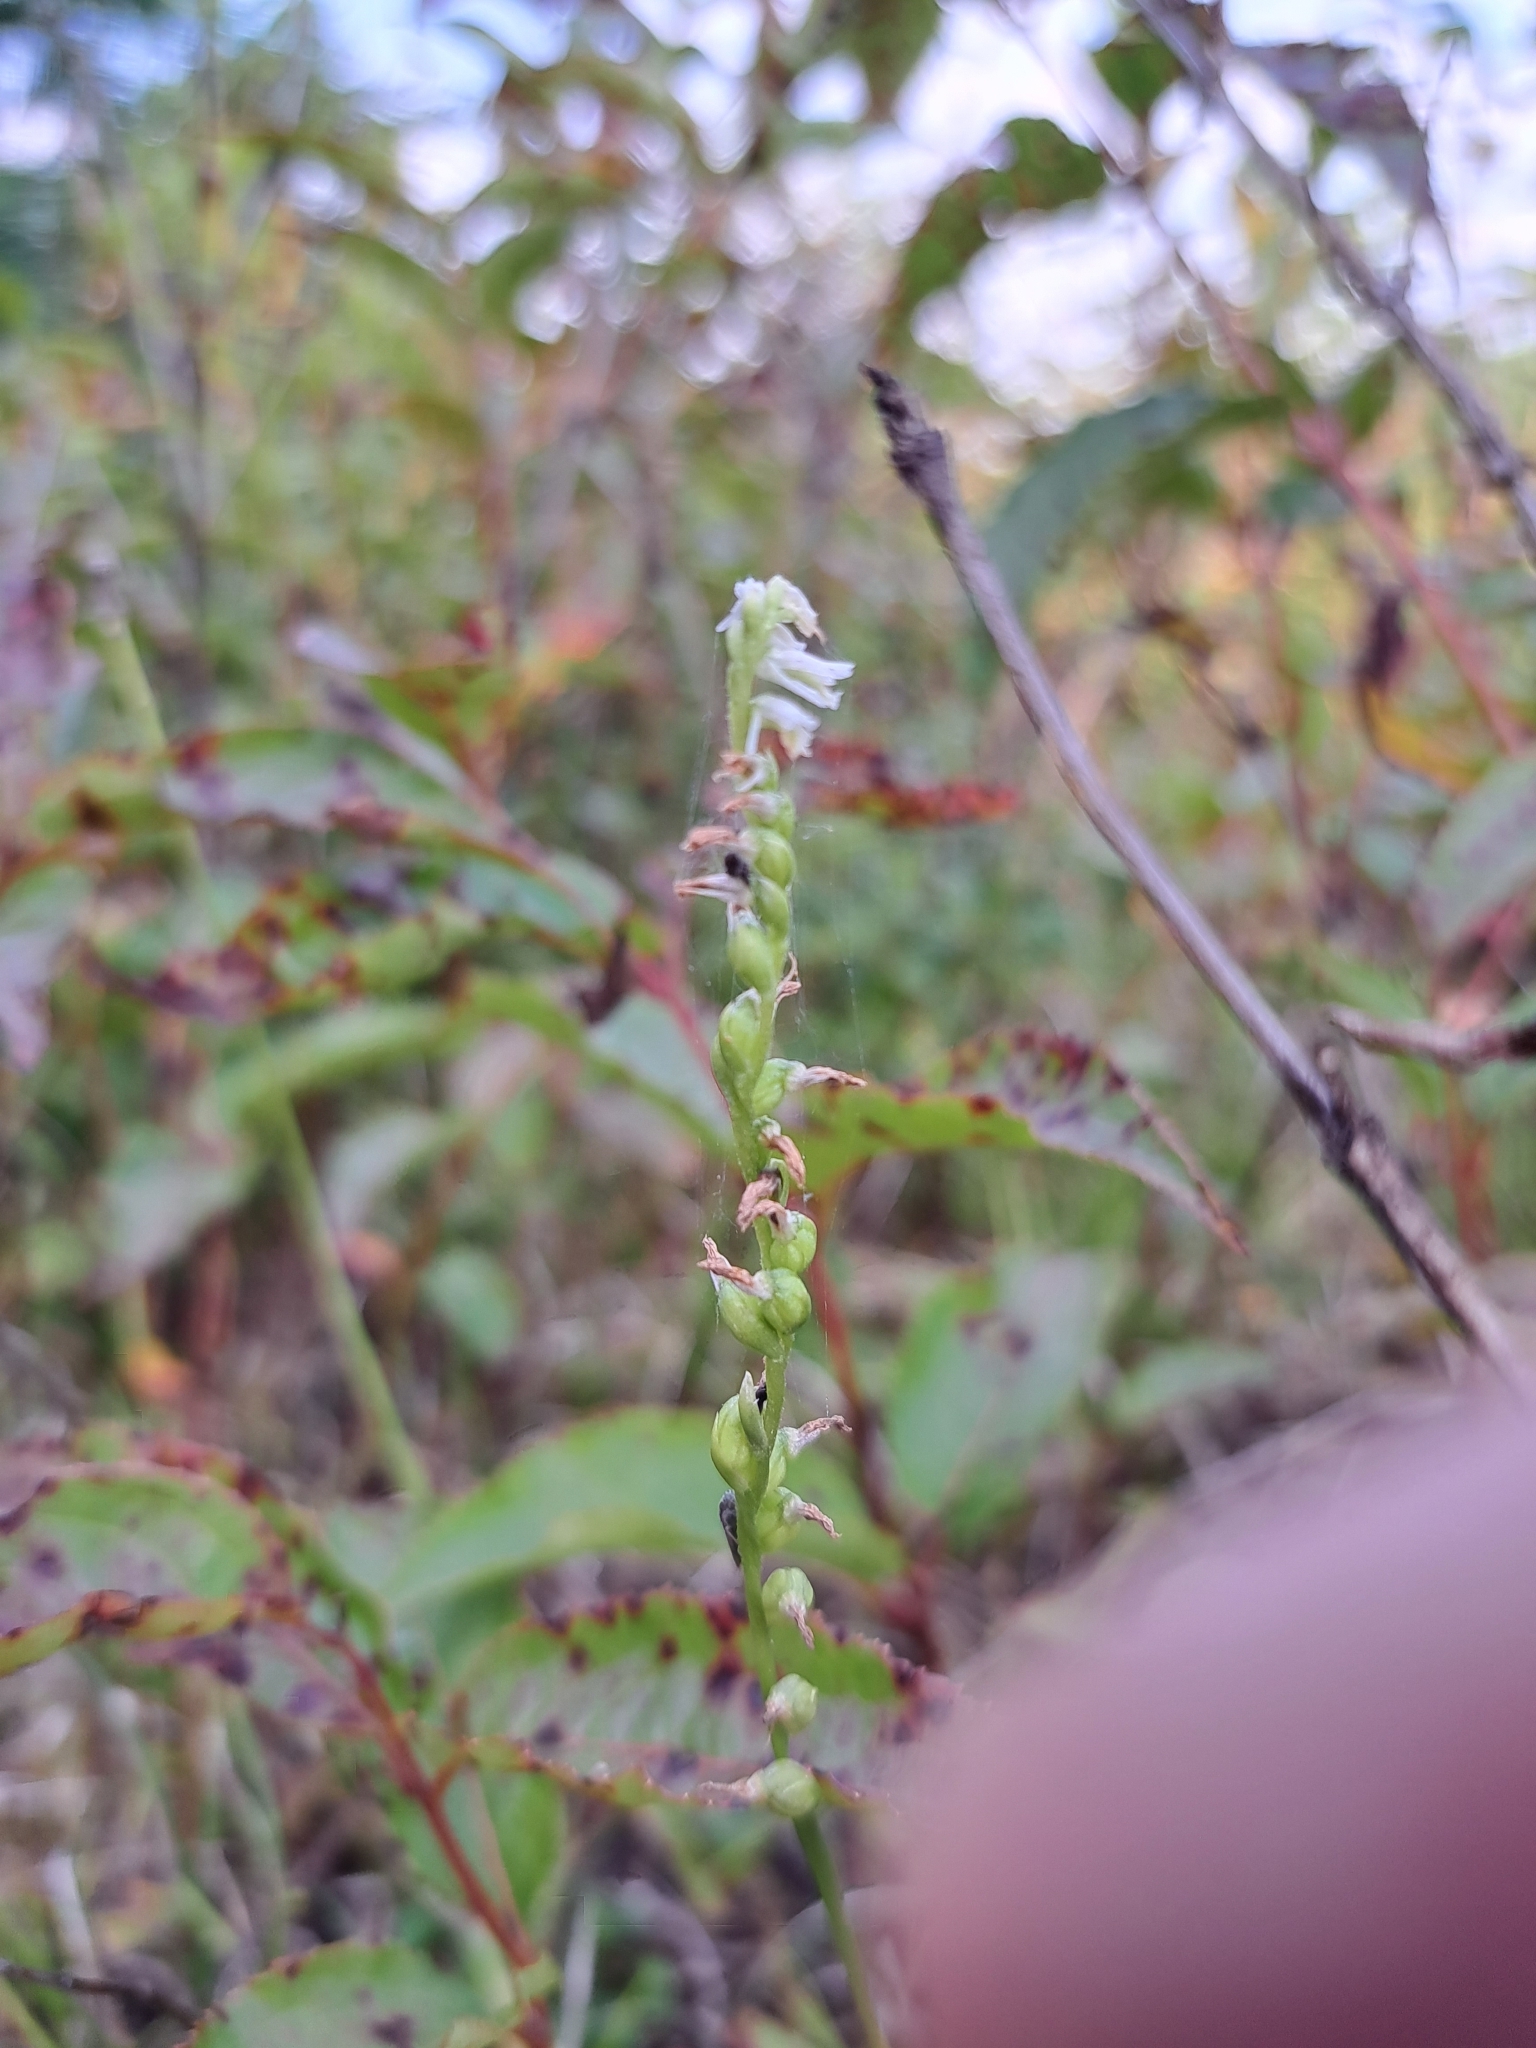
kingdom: Plantae
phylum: Tracheophyta
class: Liliopsida
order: Asparagales
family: Orchidaceae
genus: Spiranthes
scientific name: Spiranthes lacera
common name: Northern slender ladies'-tresses
